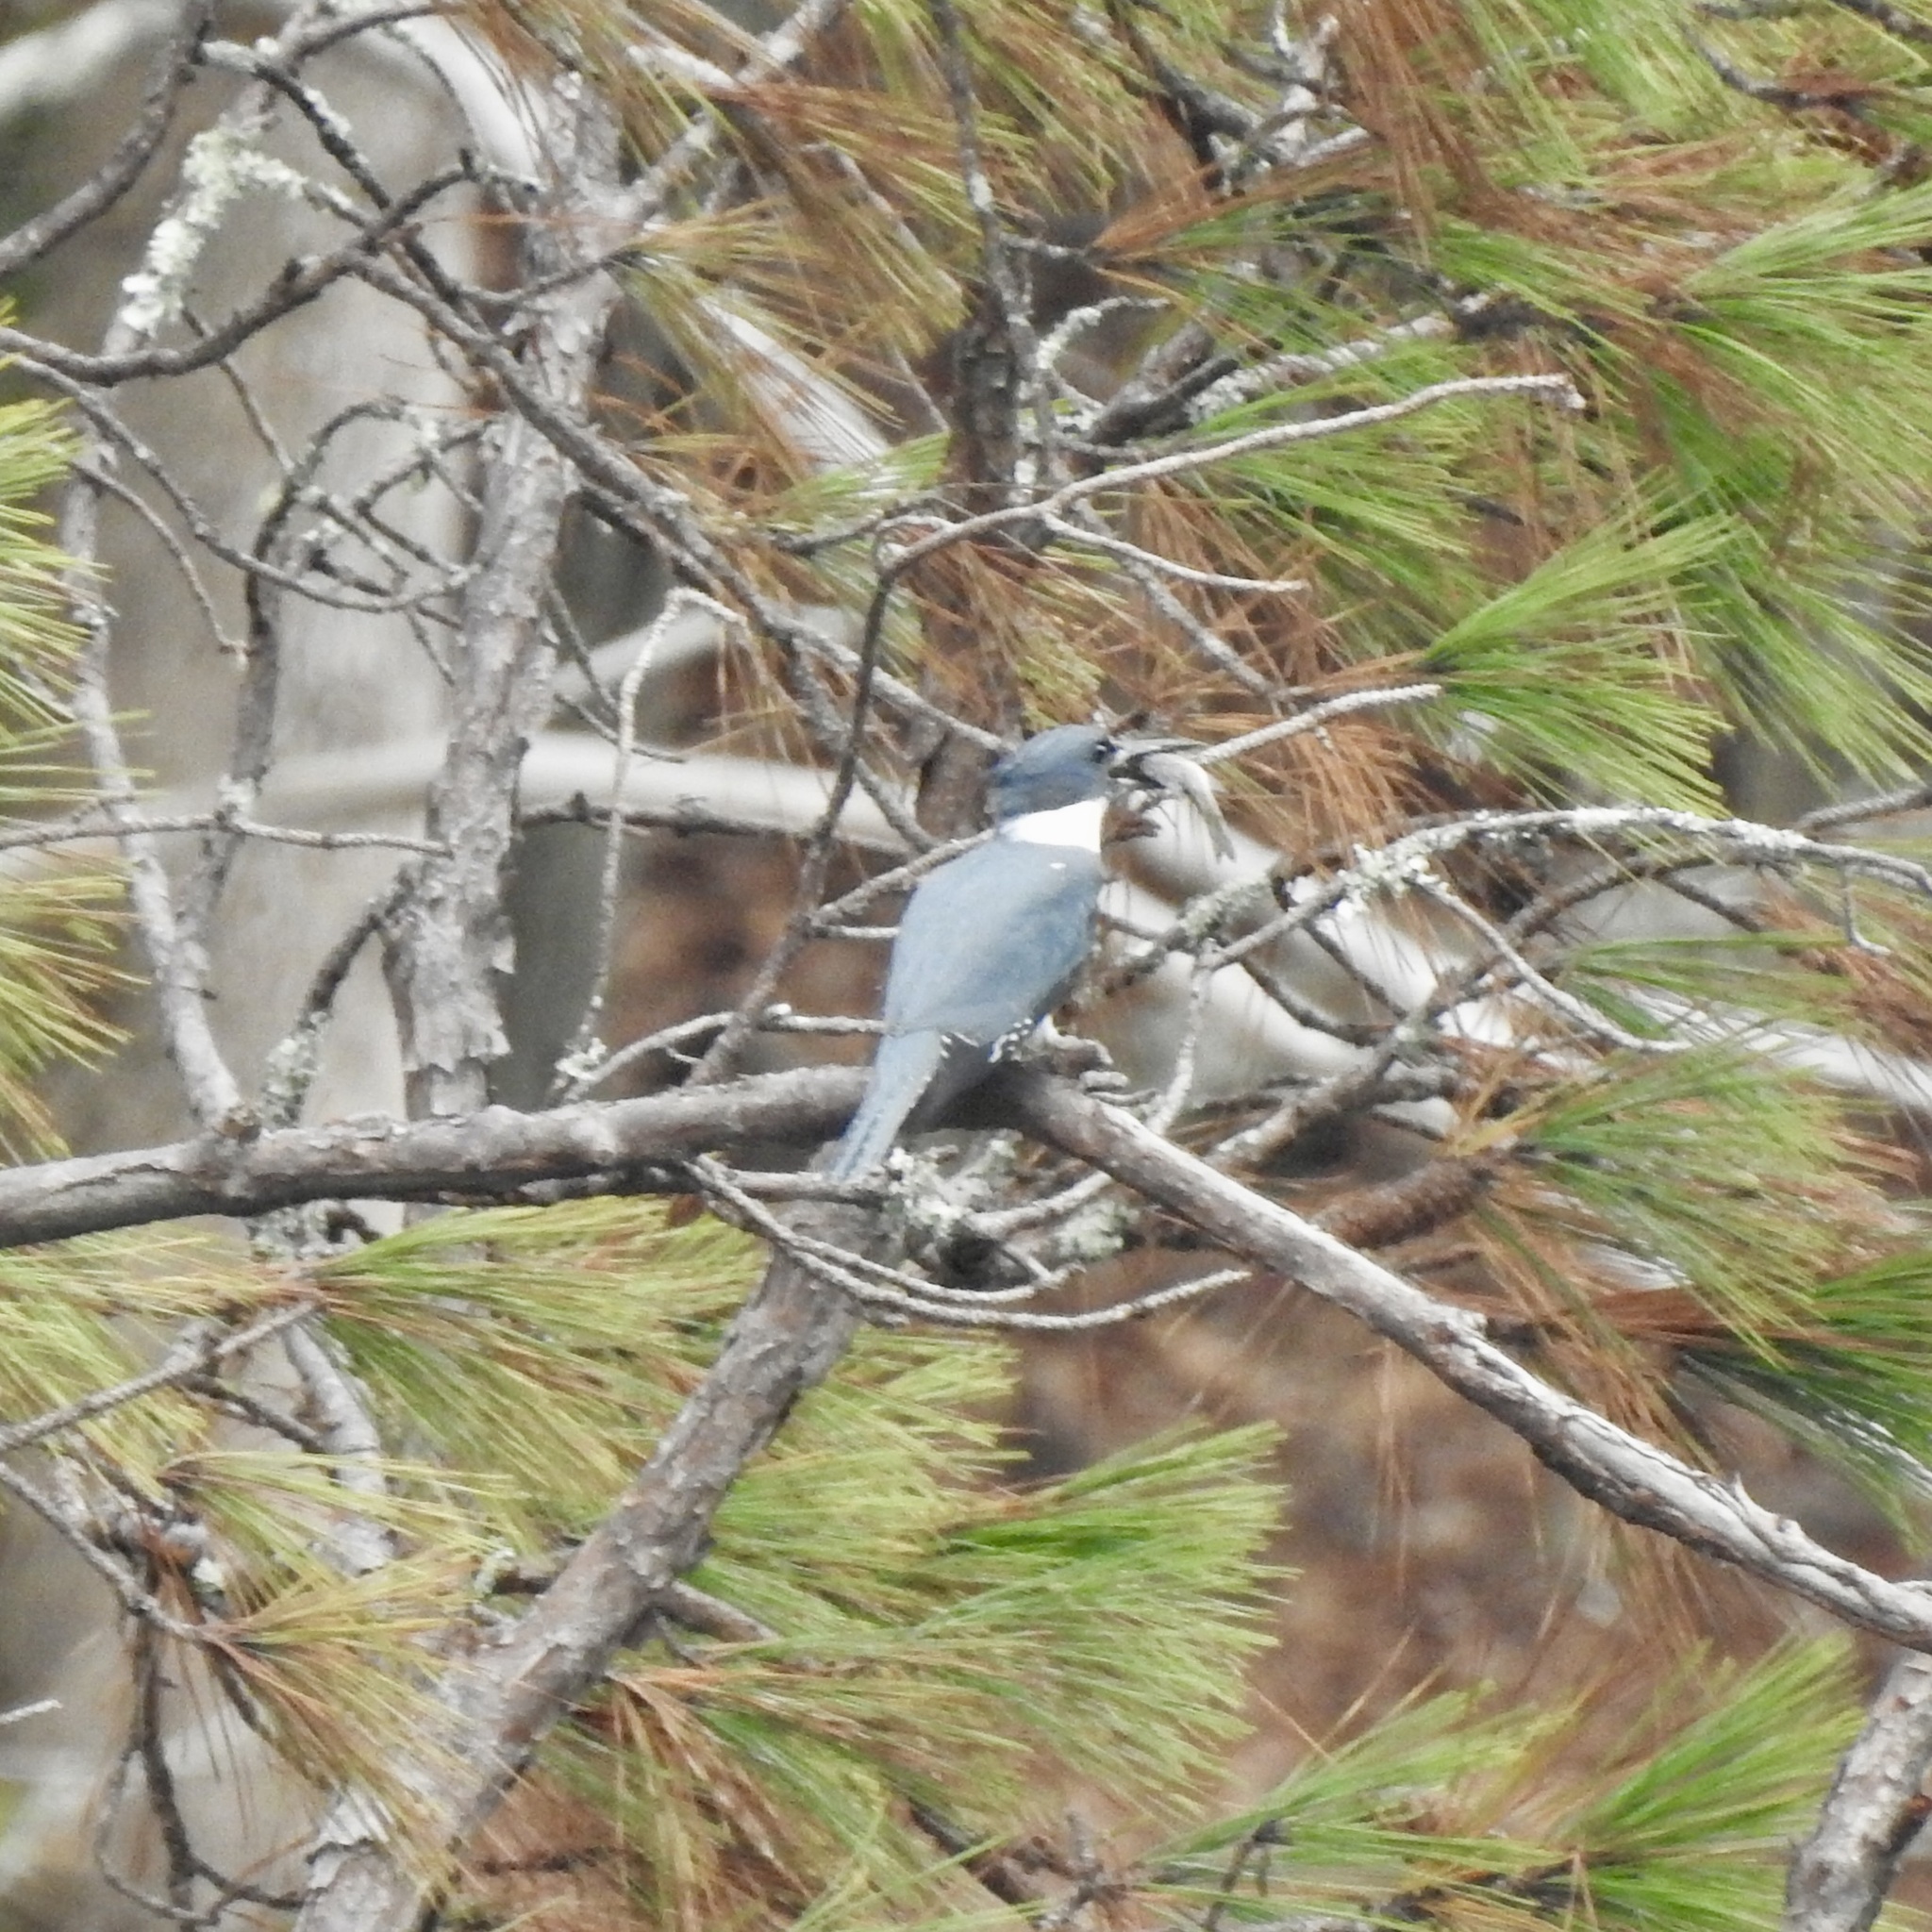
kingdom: Animalia
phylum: Chordata
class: Aves
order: Coraciiformes
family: Alcedinidae
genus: Megaceryle
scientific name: Megaceryle alcyon
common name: Belted kingfisher
